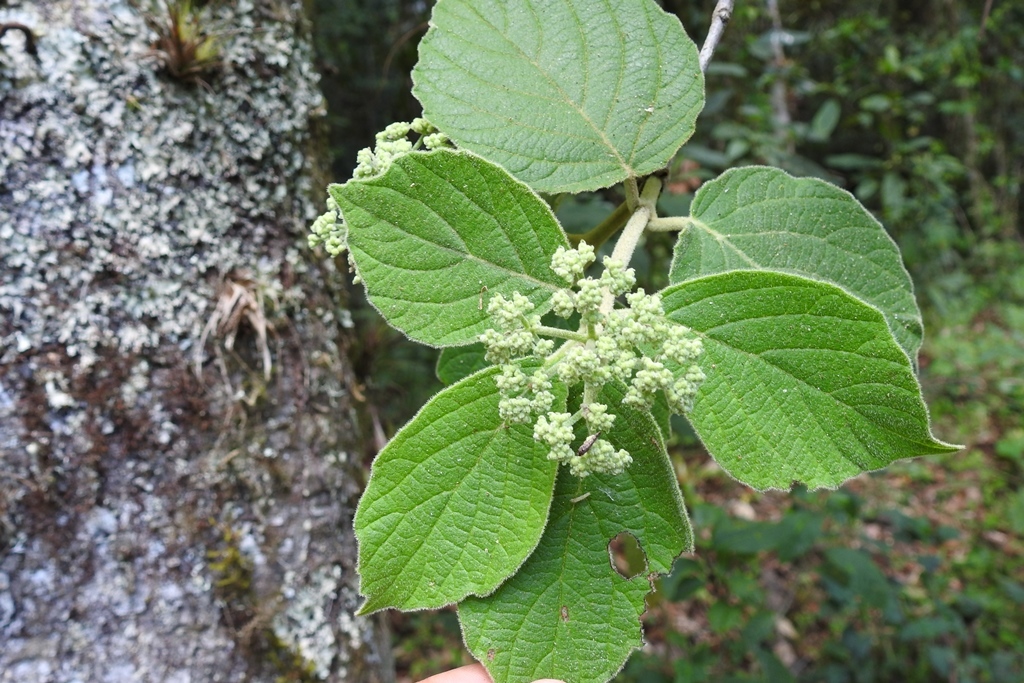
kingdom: Plantae
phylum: Tracheophyta
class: Magnoliopsida
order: Dipsacales
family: Viburnaceae
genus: Viburnum
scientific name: Viburnum jucundum
